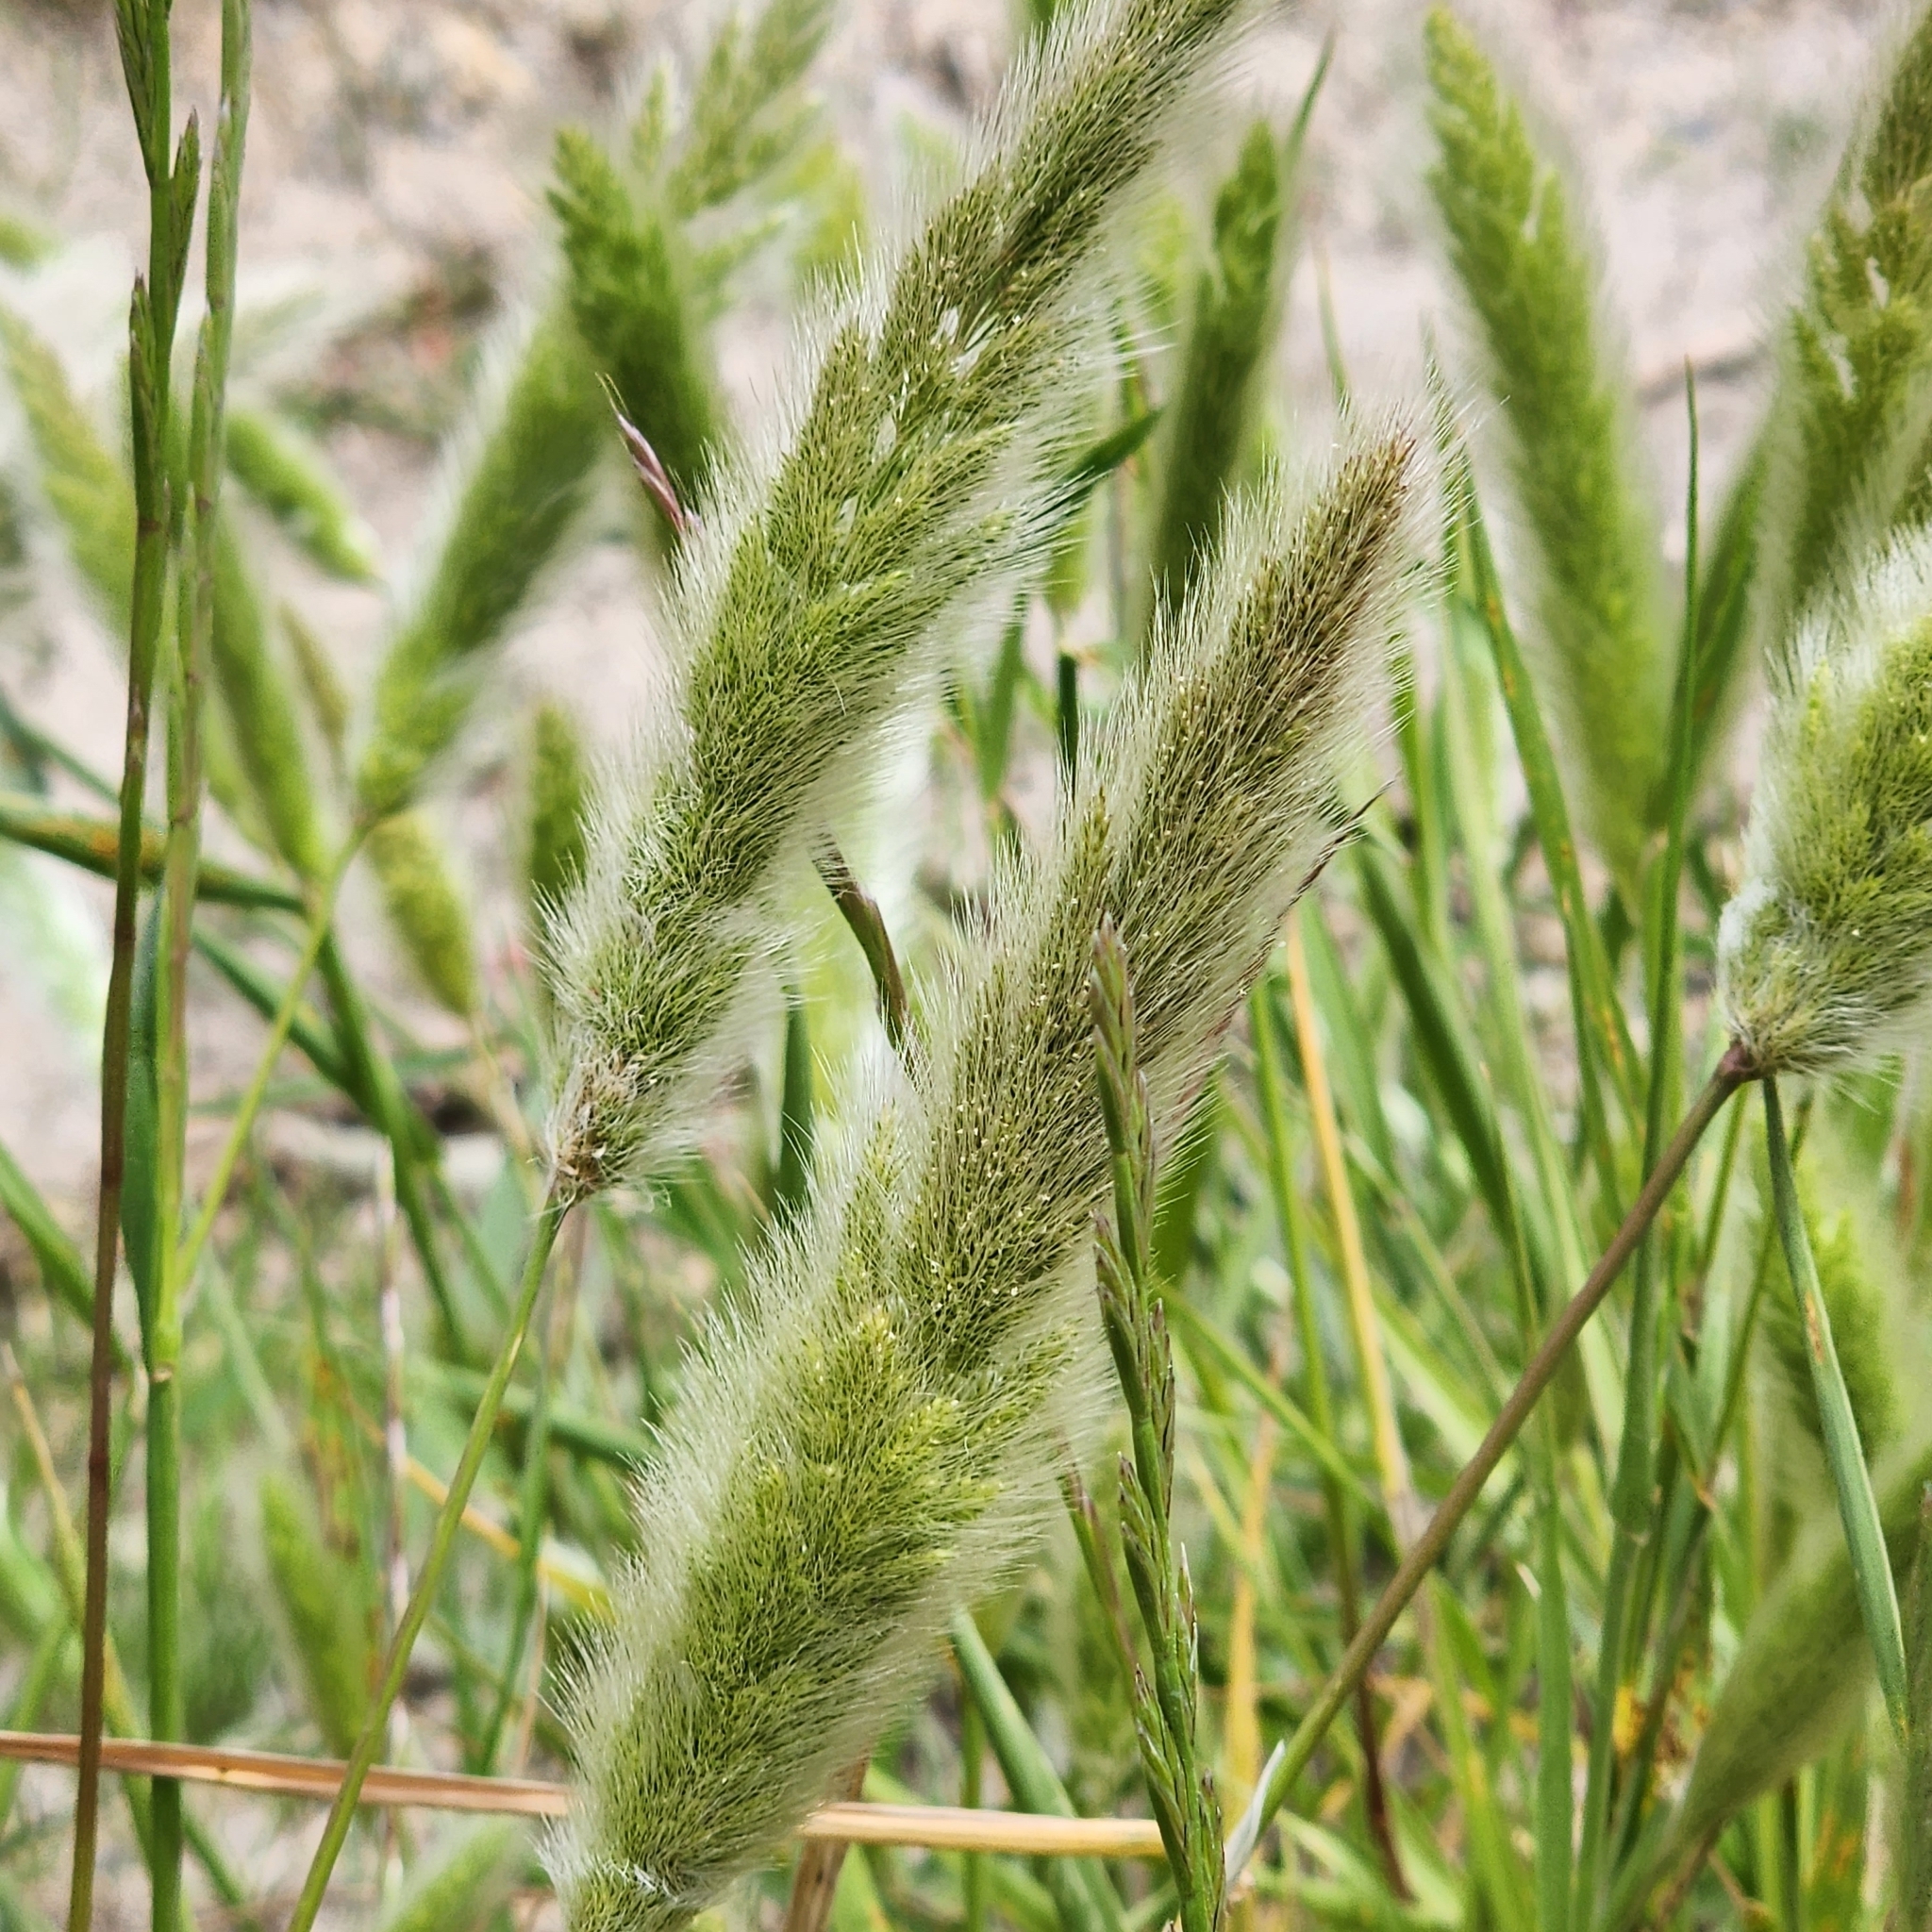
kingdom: Plantae
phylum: Tracheophyta
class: Liliopsida
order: Poales
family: Poaceae
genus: Polypogon
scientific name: Polypogon monspeliensis
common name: Annual rabbitsfoot grass
